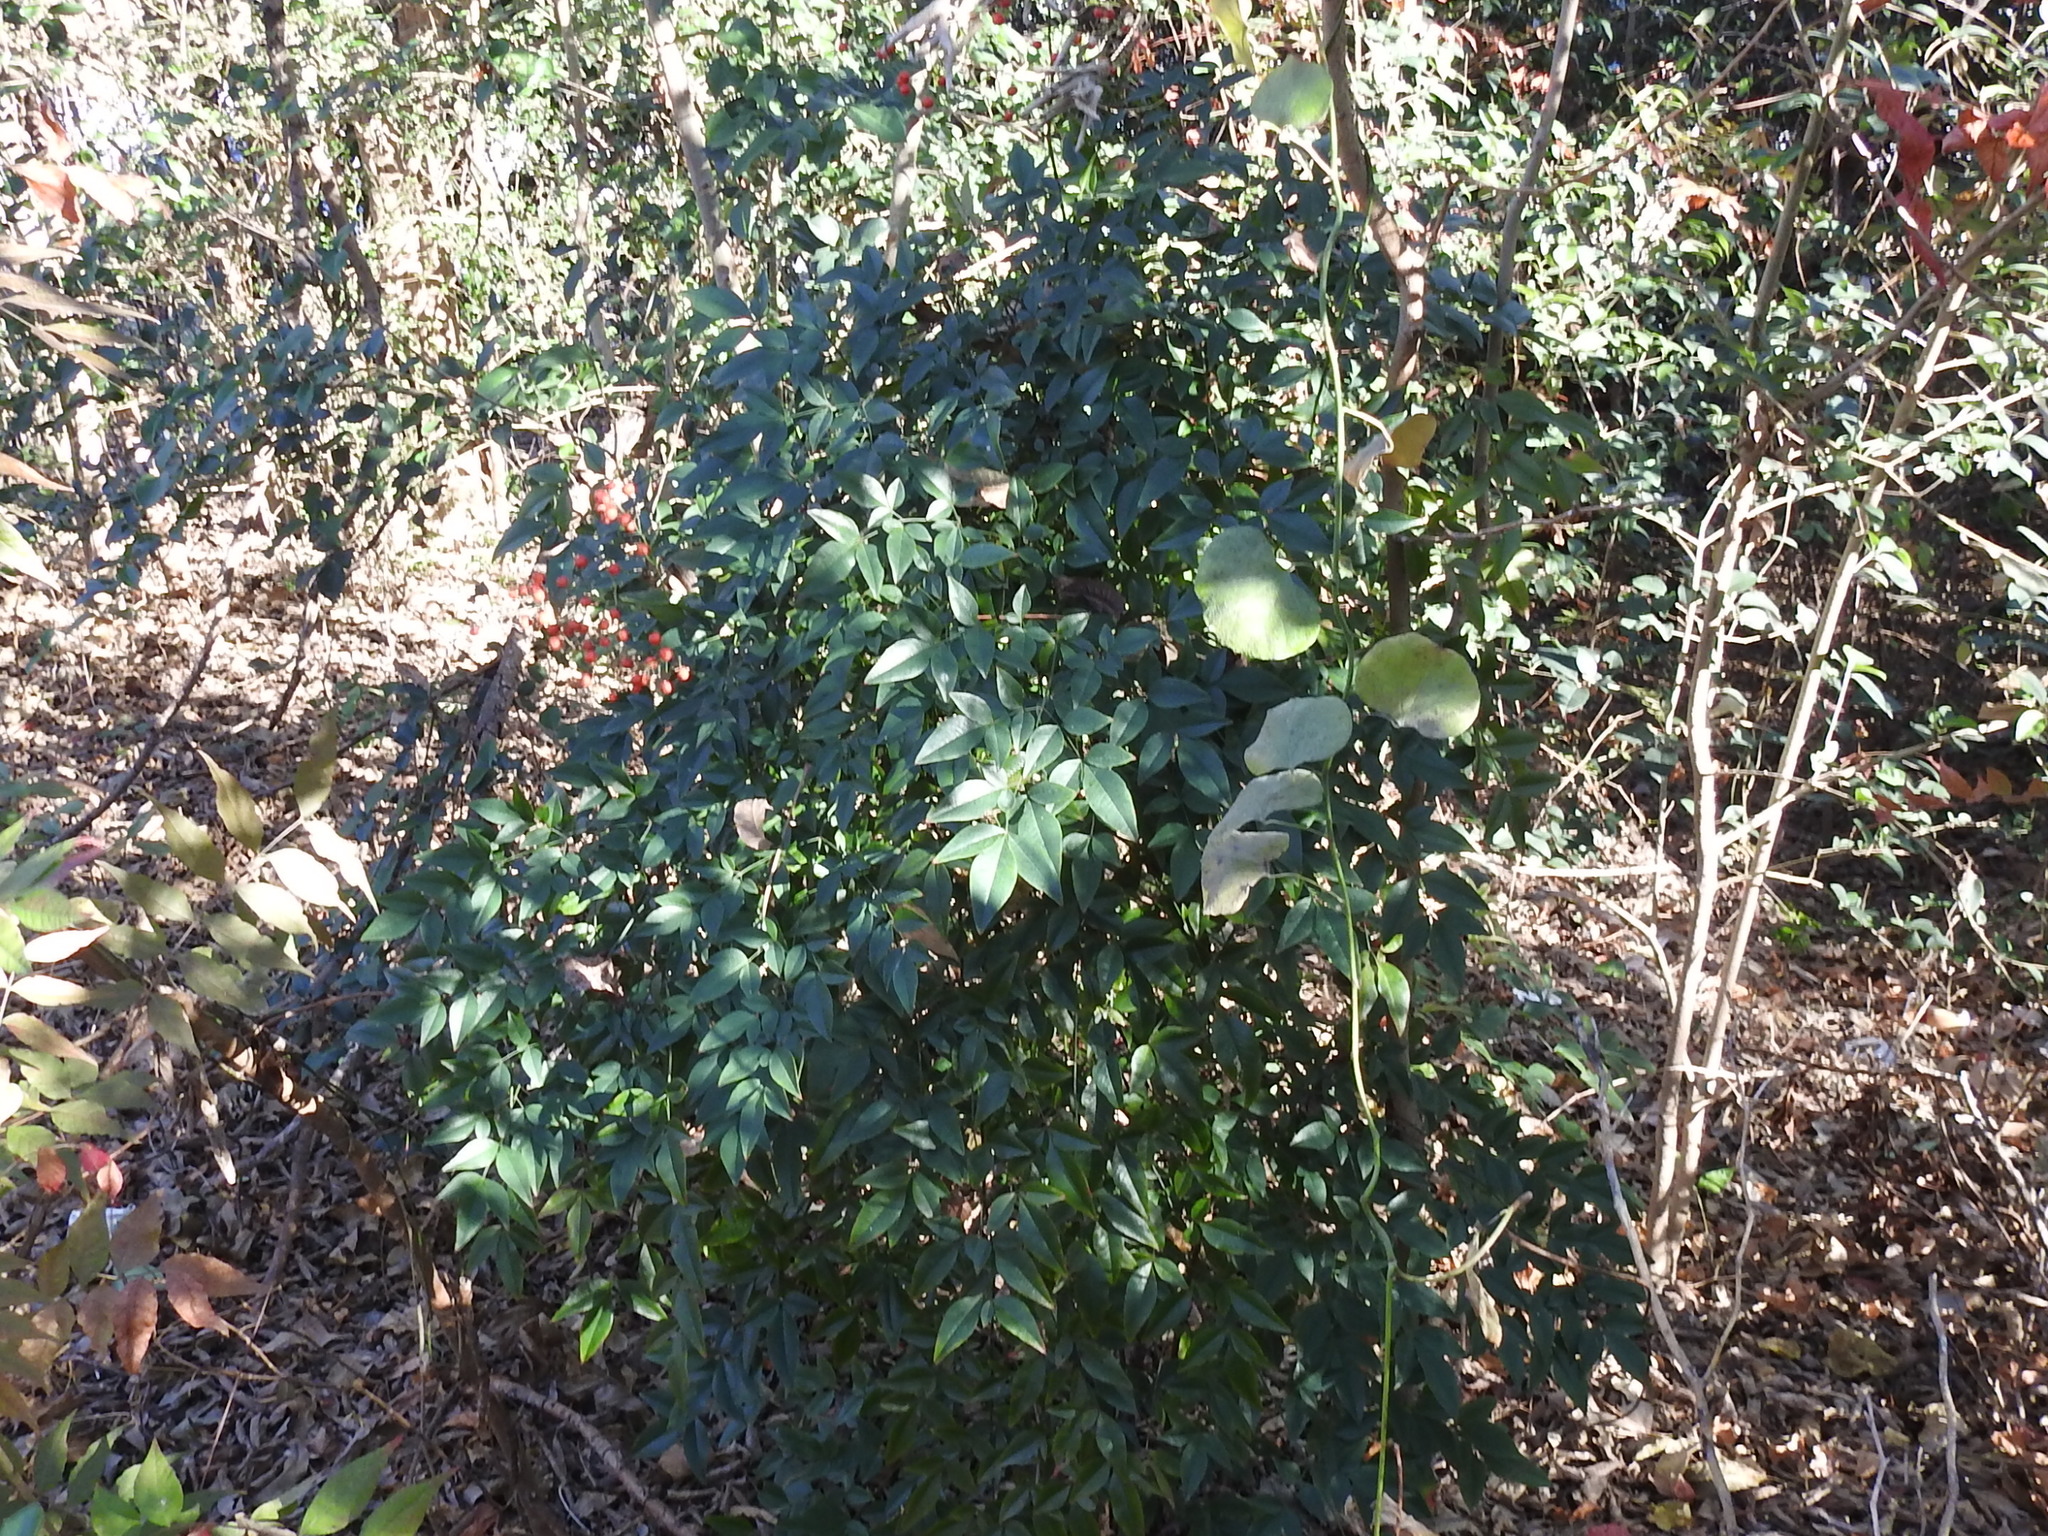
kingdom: Plantae
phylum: Tracheophyta
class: Magnoliopsida
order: Ranunculales
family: Berberidaceae
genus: Nandina
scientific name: Nandina domestica
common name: Sacred bamboo
